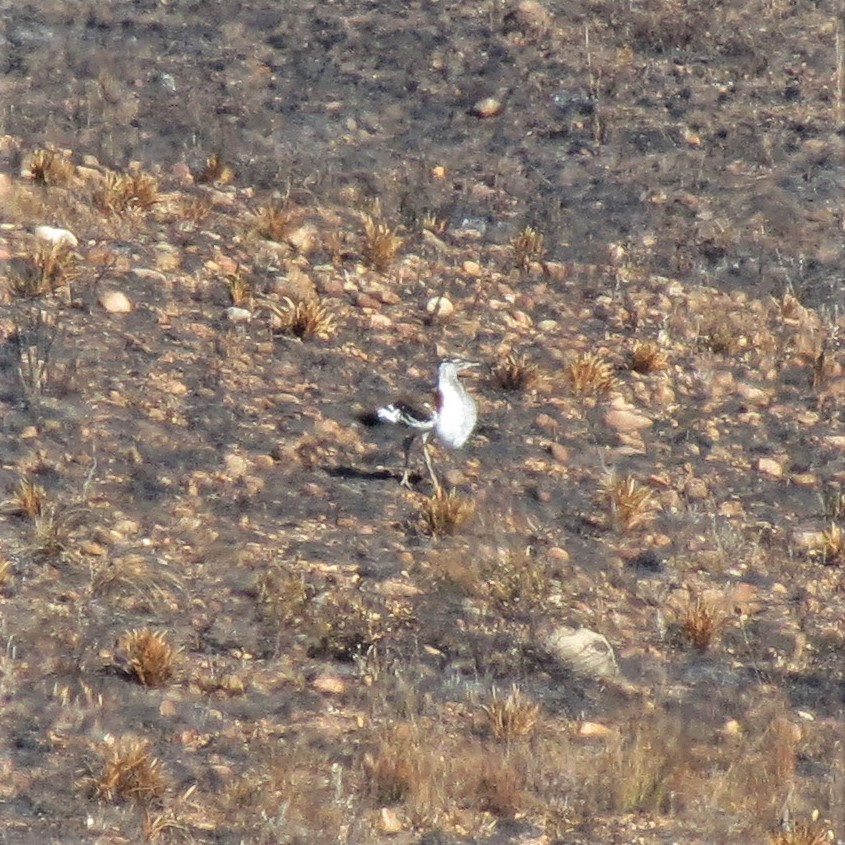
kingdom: Animalia
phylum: Chordata
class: Aves
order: Otidiformes
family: Otididae
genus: Neotis
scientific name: Neotis denhami
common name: Denham's bustard
